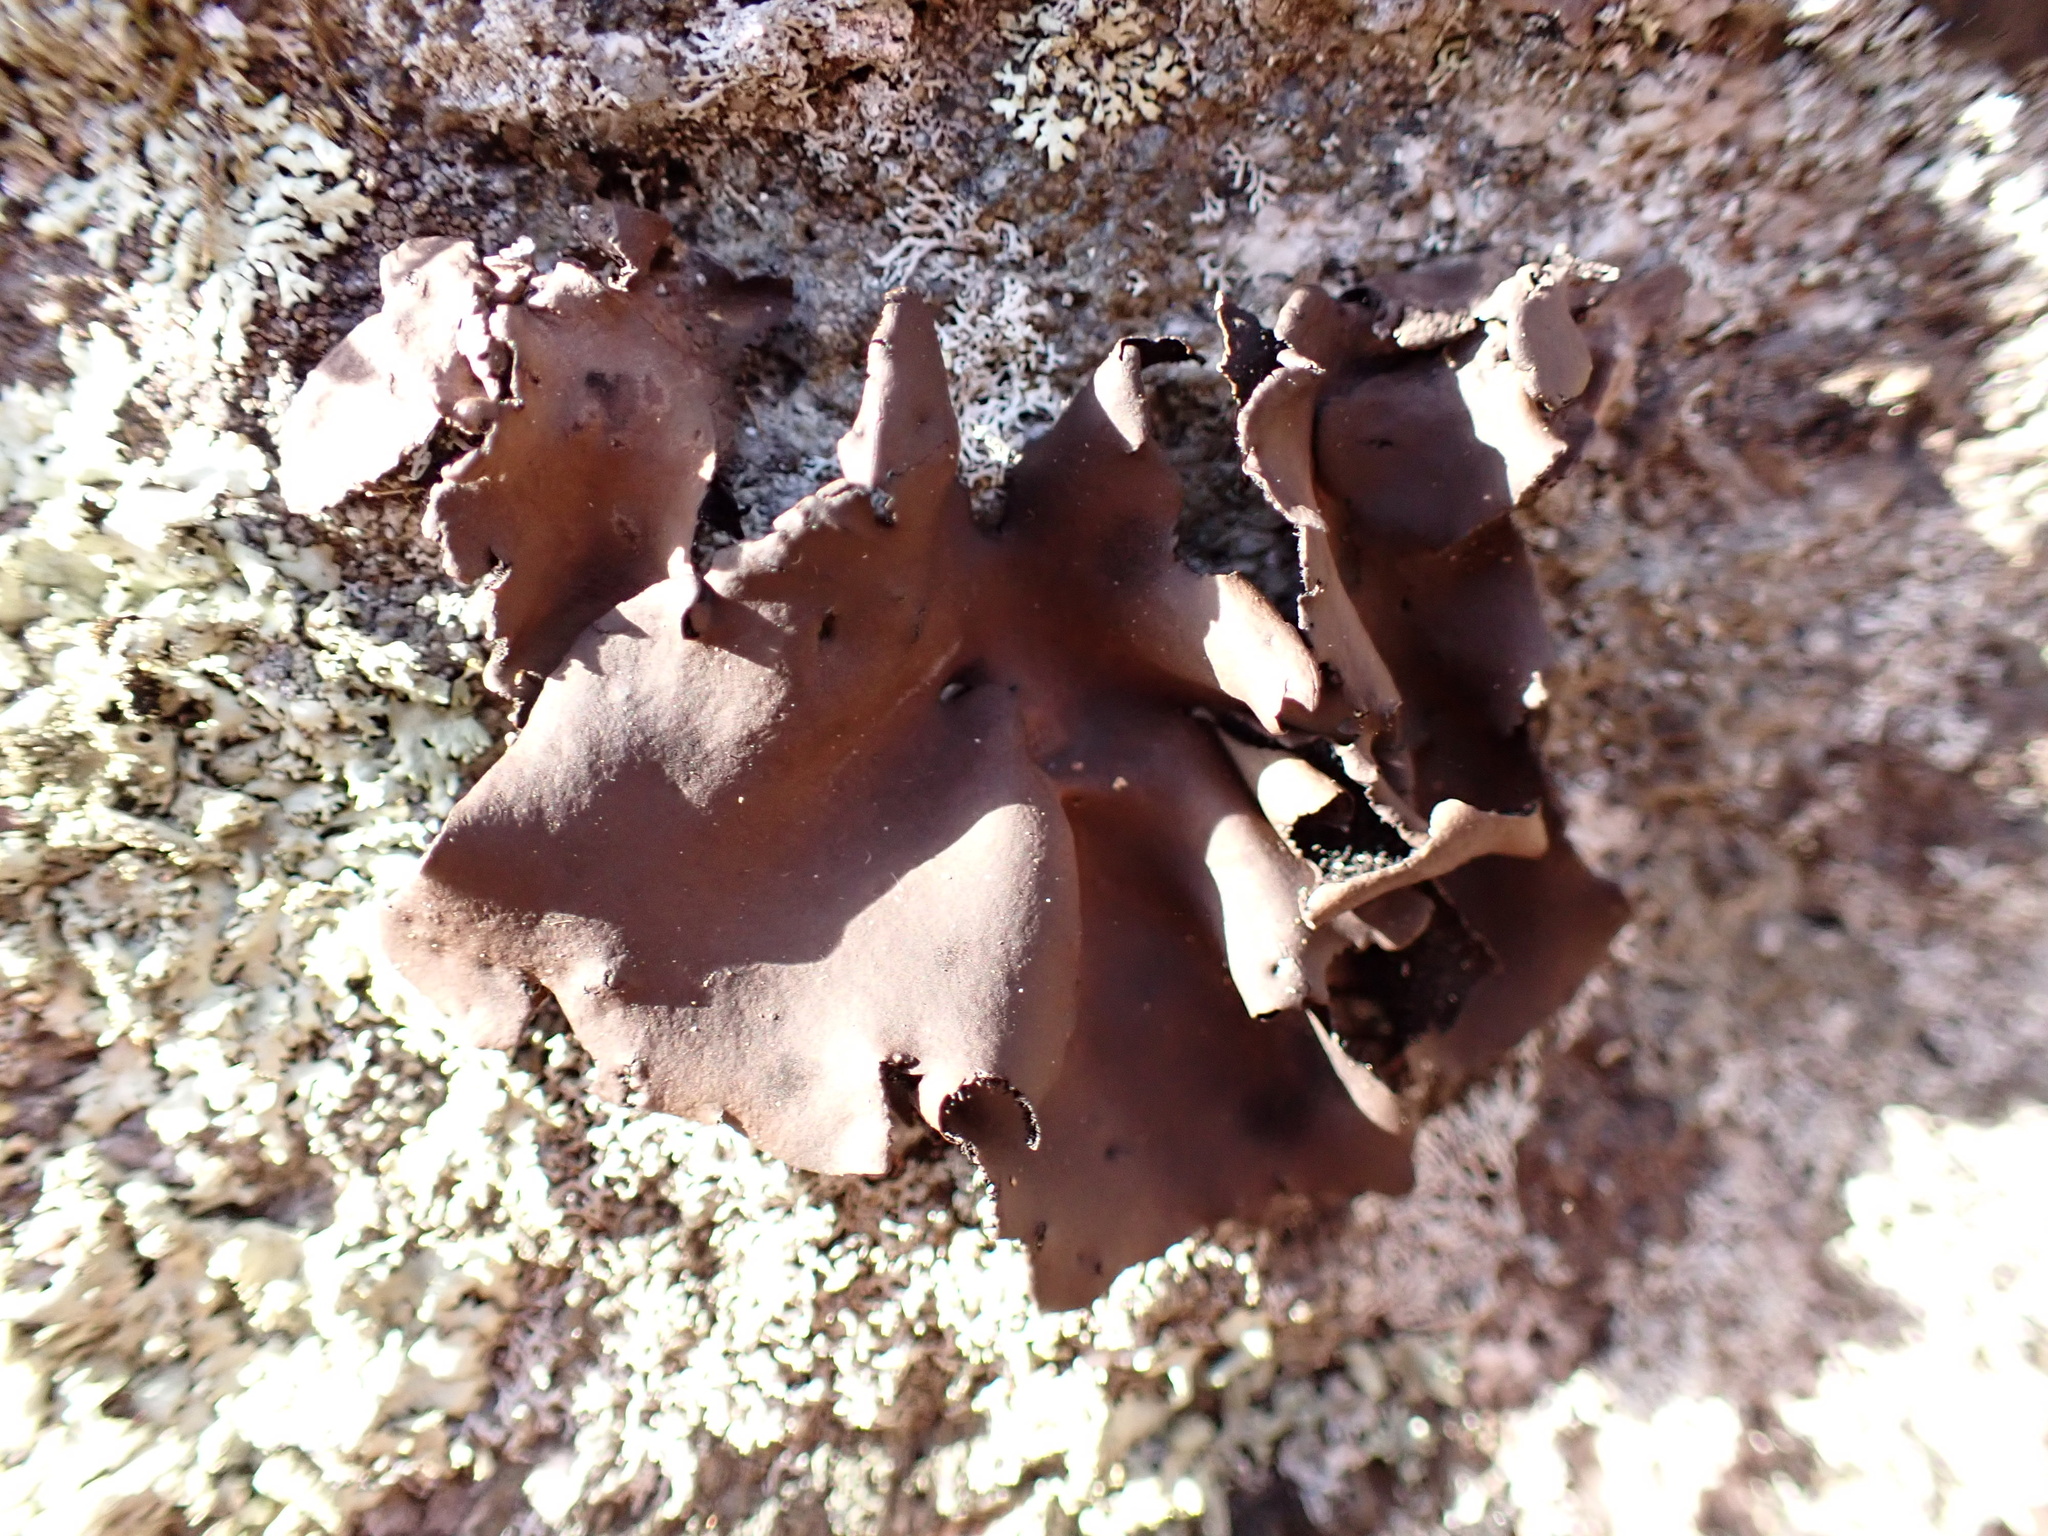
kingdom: Fungi
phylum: Ascomycota
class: Lecanoromycetes
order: Umbilicariales
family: Umbilicariaceae
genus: Umbilicaria
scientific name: Umbilicaria muhlenbergii
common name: Lesser rocktripe
